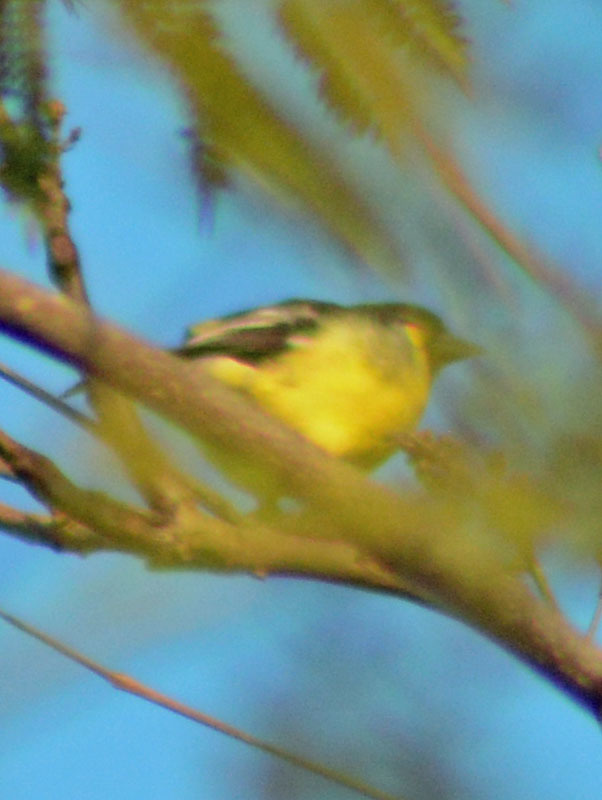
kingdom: Animalia
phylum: Chordata
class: Aves
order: Passeriformes
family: Fringillidae
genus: Spinus
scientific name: Spinus psaltria
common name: Lesser goldfinch
